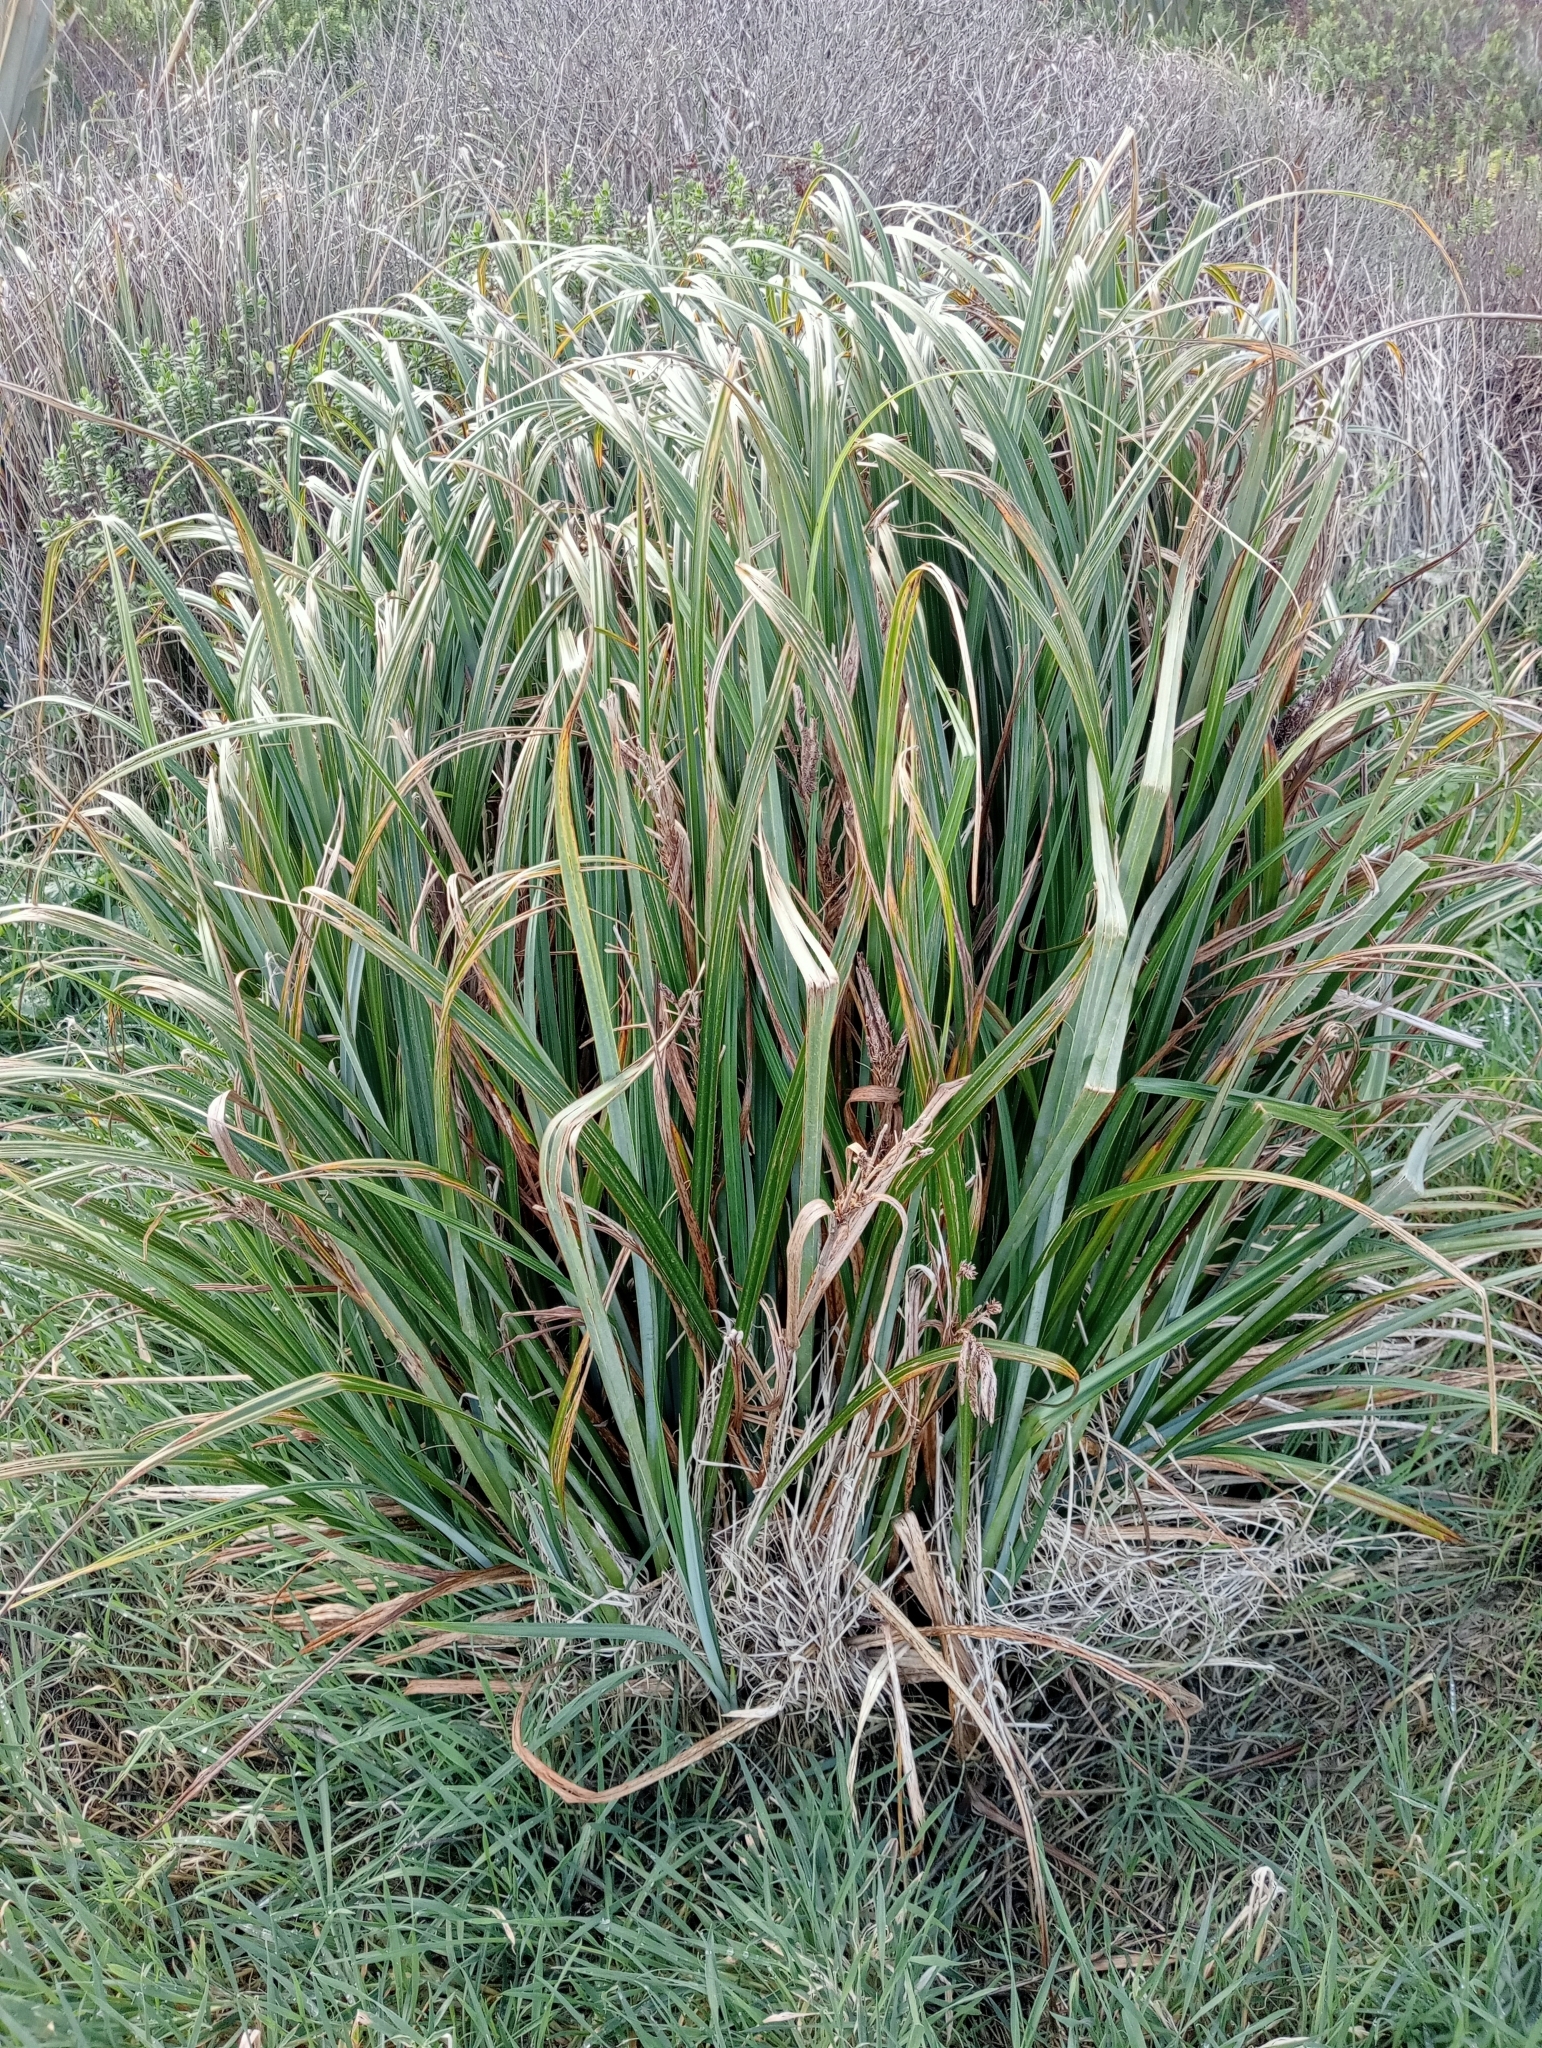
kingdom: Plantae
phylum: Tracheophyta
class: Liliopsida
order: Poales
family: Cyperaceae
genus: Carex
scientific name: Carex trifida
